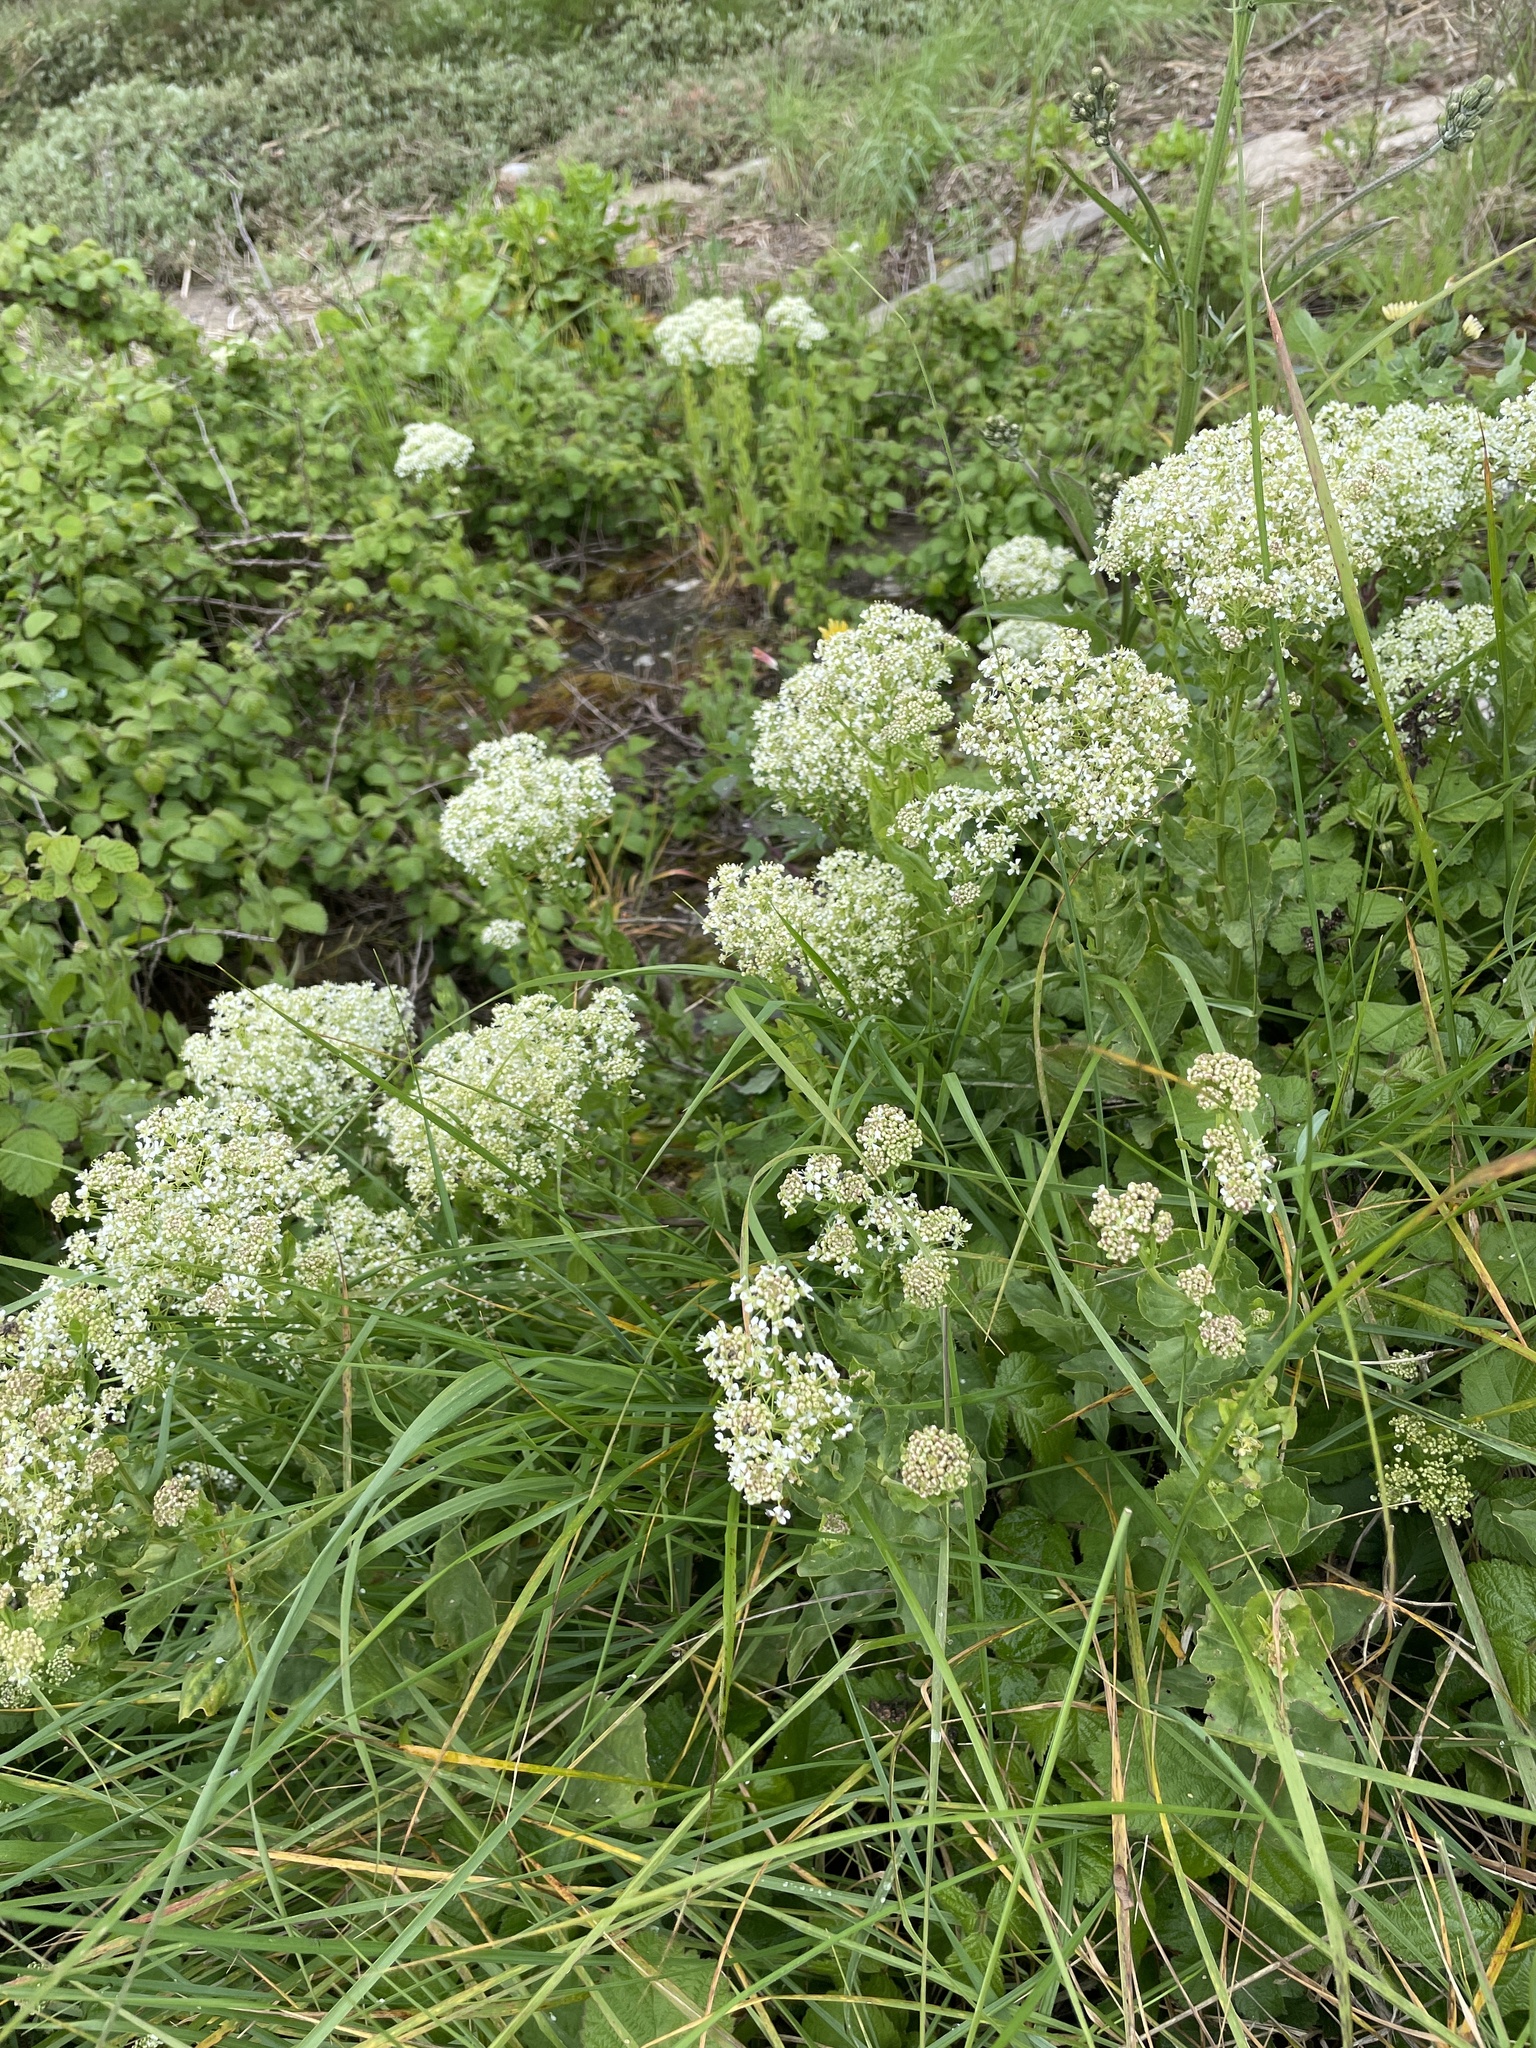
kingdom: Plantae
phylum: Tracheophyta
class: Magnoliopsida
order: Brassicales
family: Brassicaceae
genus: Lepidium
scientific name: Lepidium draba
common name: Hoary cress
